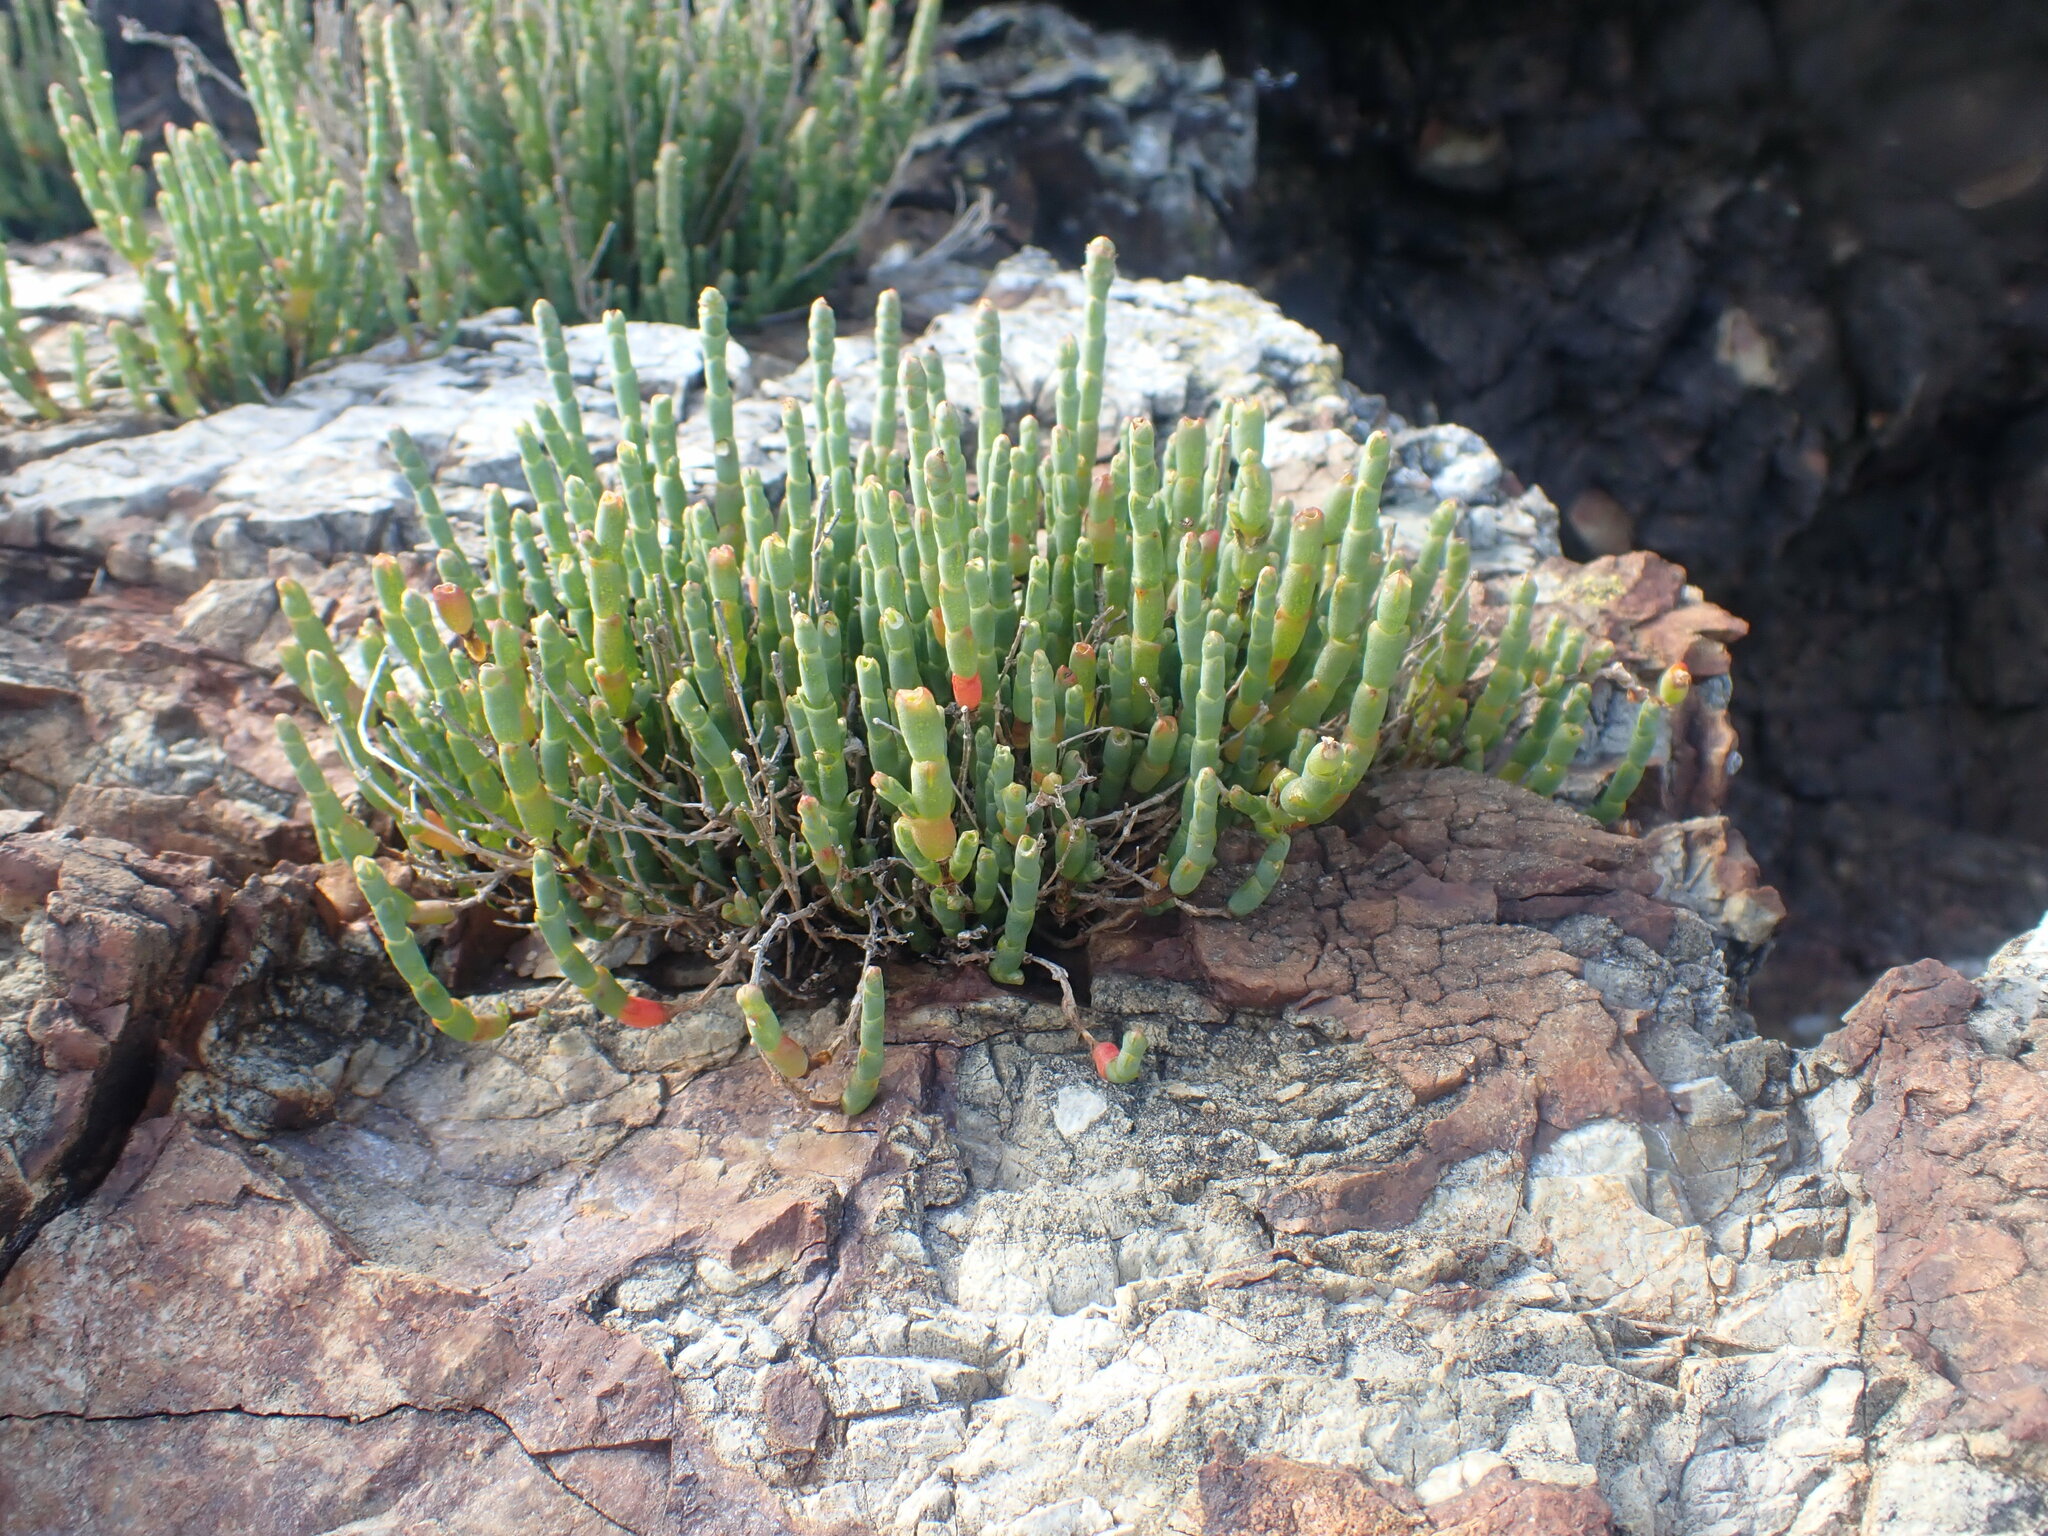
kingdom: Plantae
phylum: Tracheophyta
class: Magnoliopsida
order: Caryophyllales
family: Amaranthaceae
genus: Salicornia
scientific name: Salicornia quinqueflora
